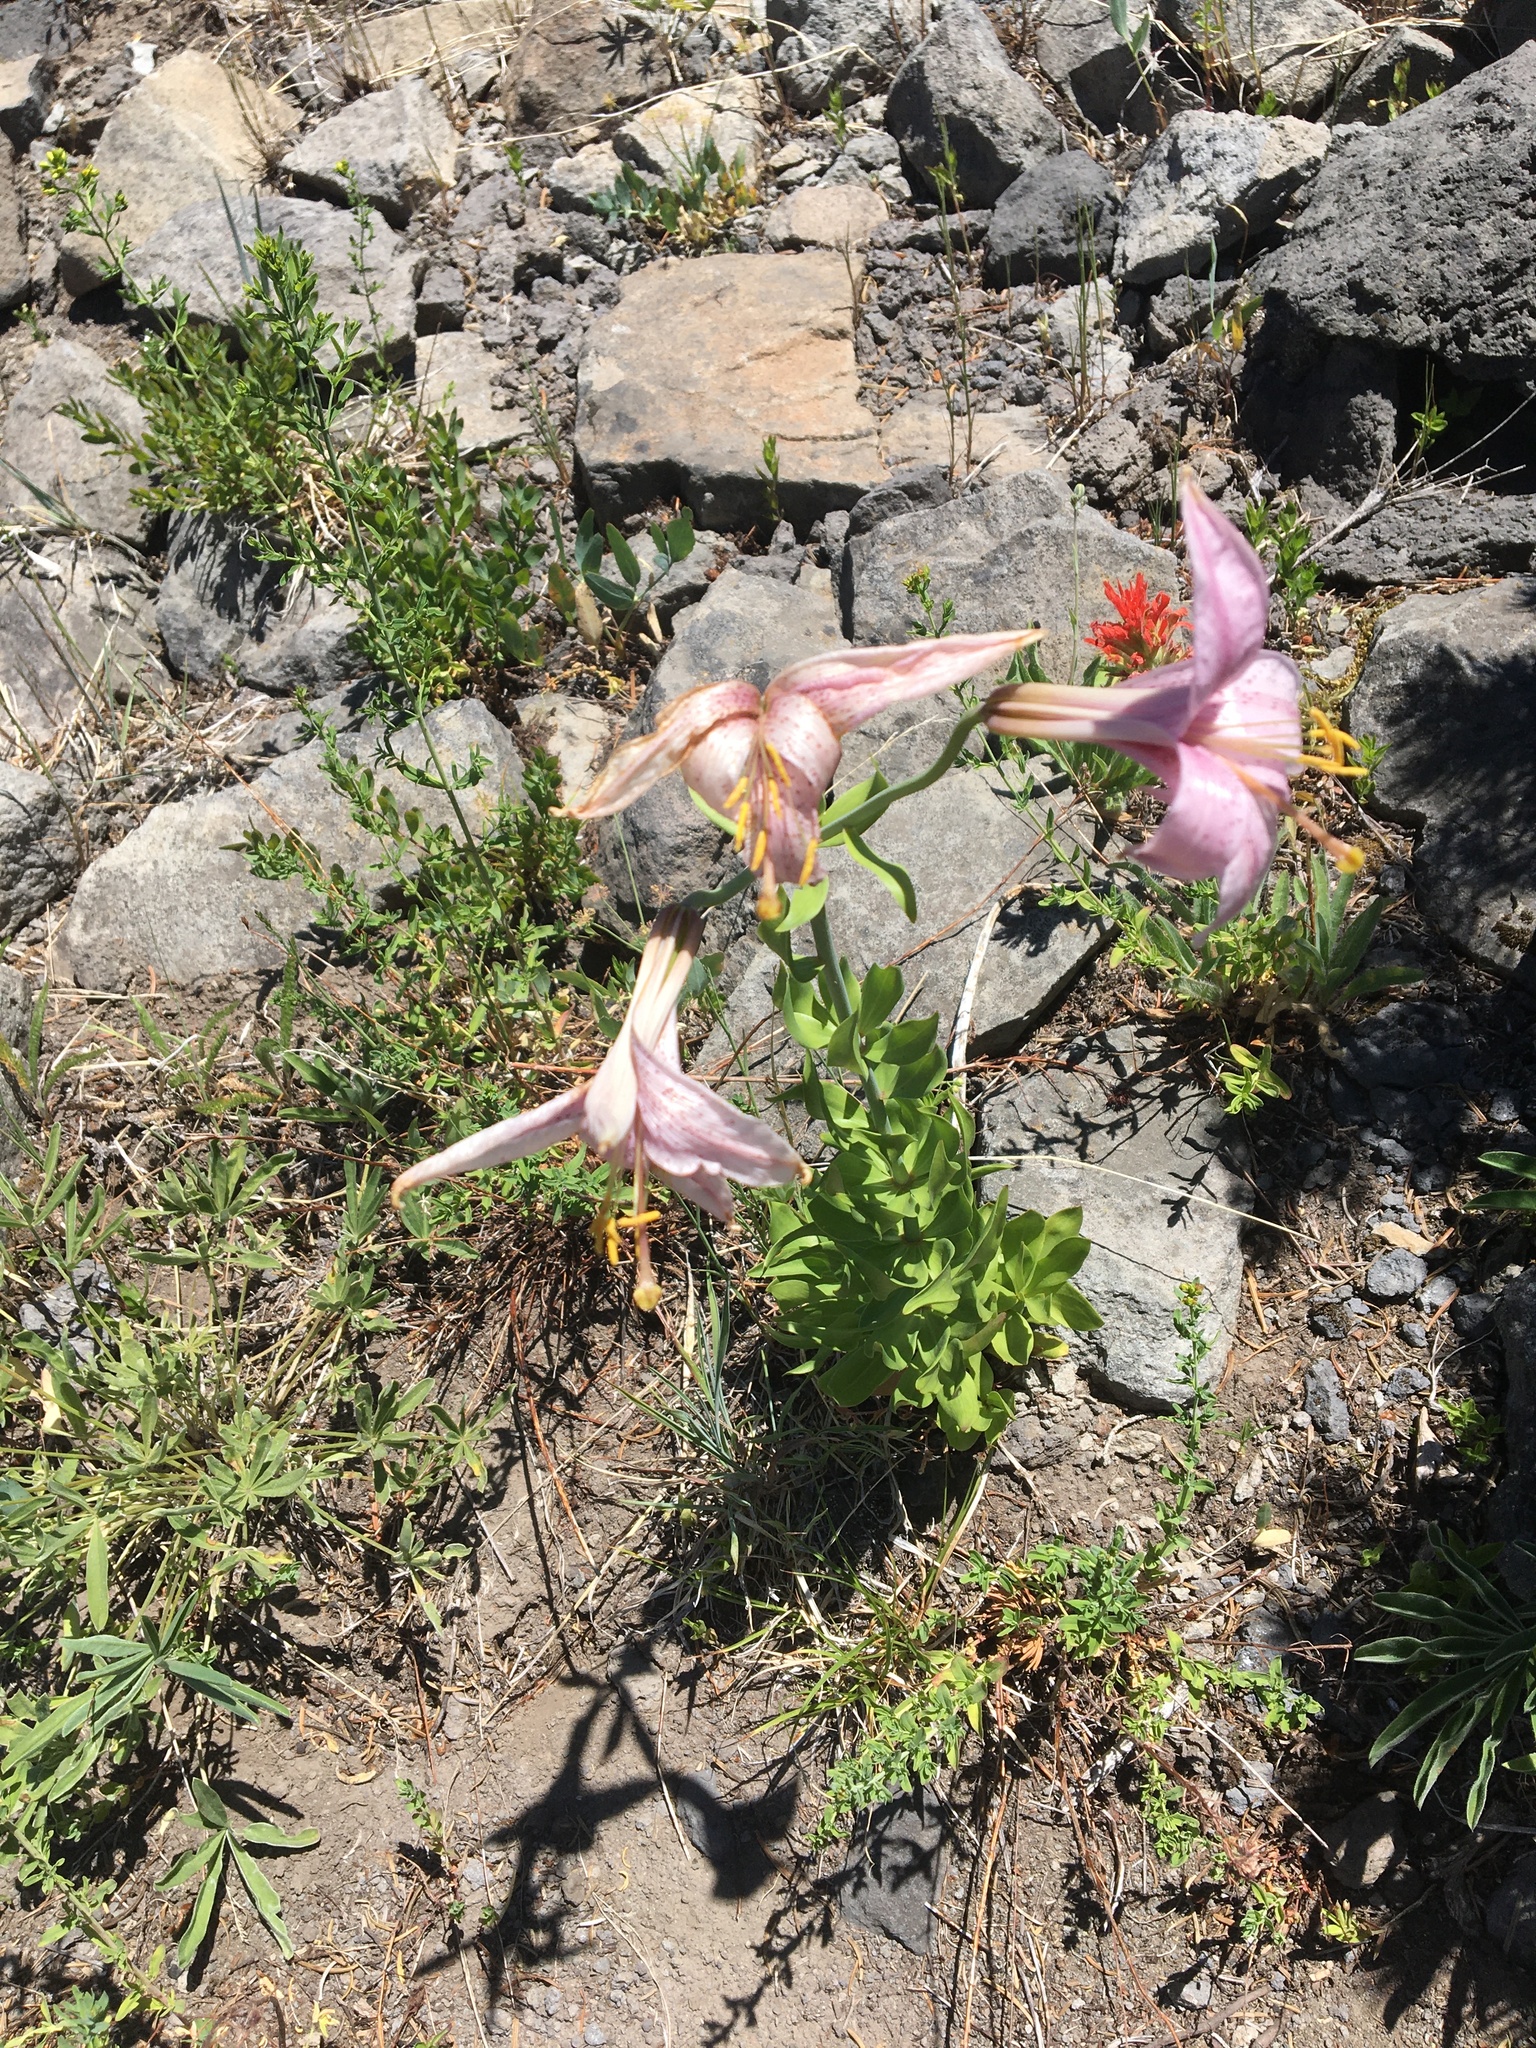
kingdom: Plantae
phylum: Tracheophyta
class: Liliopsida
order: Liliales
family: Liliaceae
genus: Lilium
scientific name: Lilium washingtonianum
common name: Washington lily
